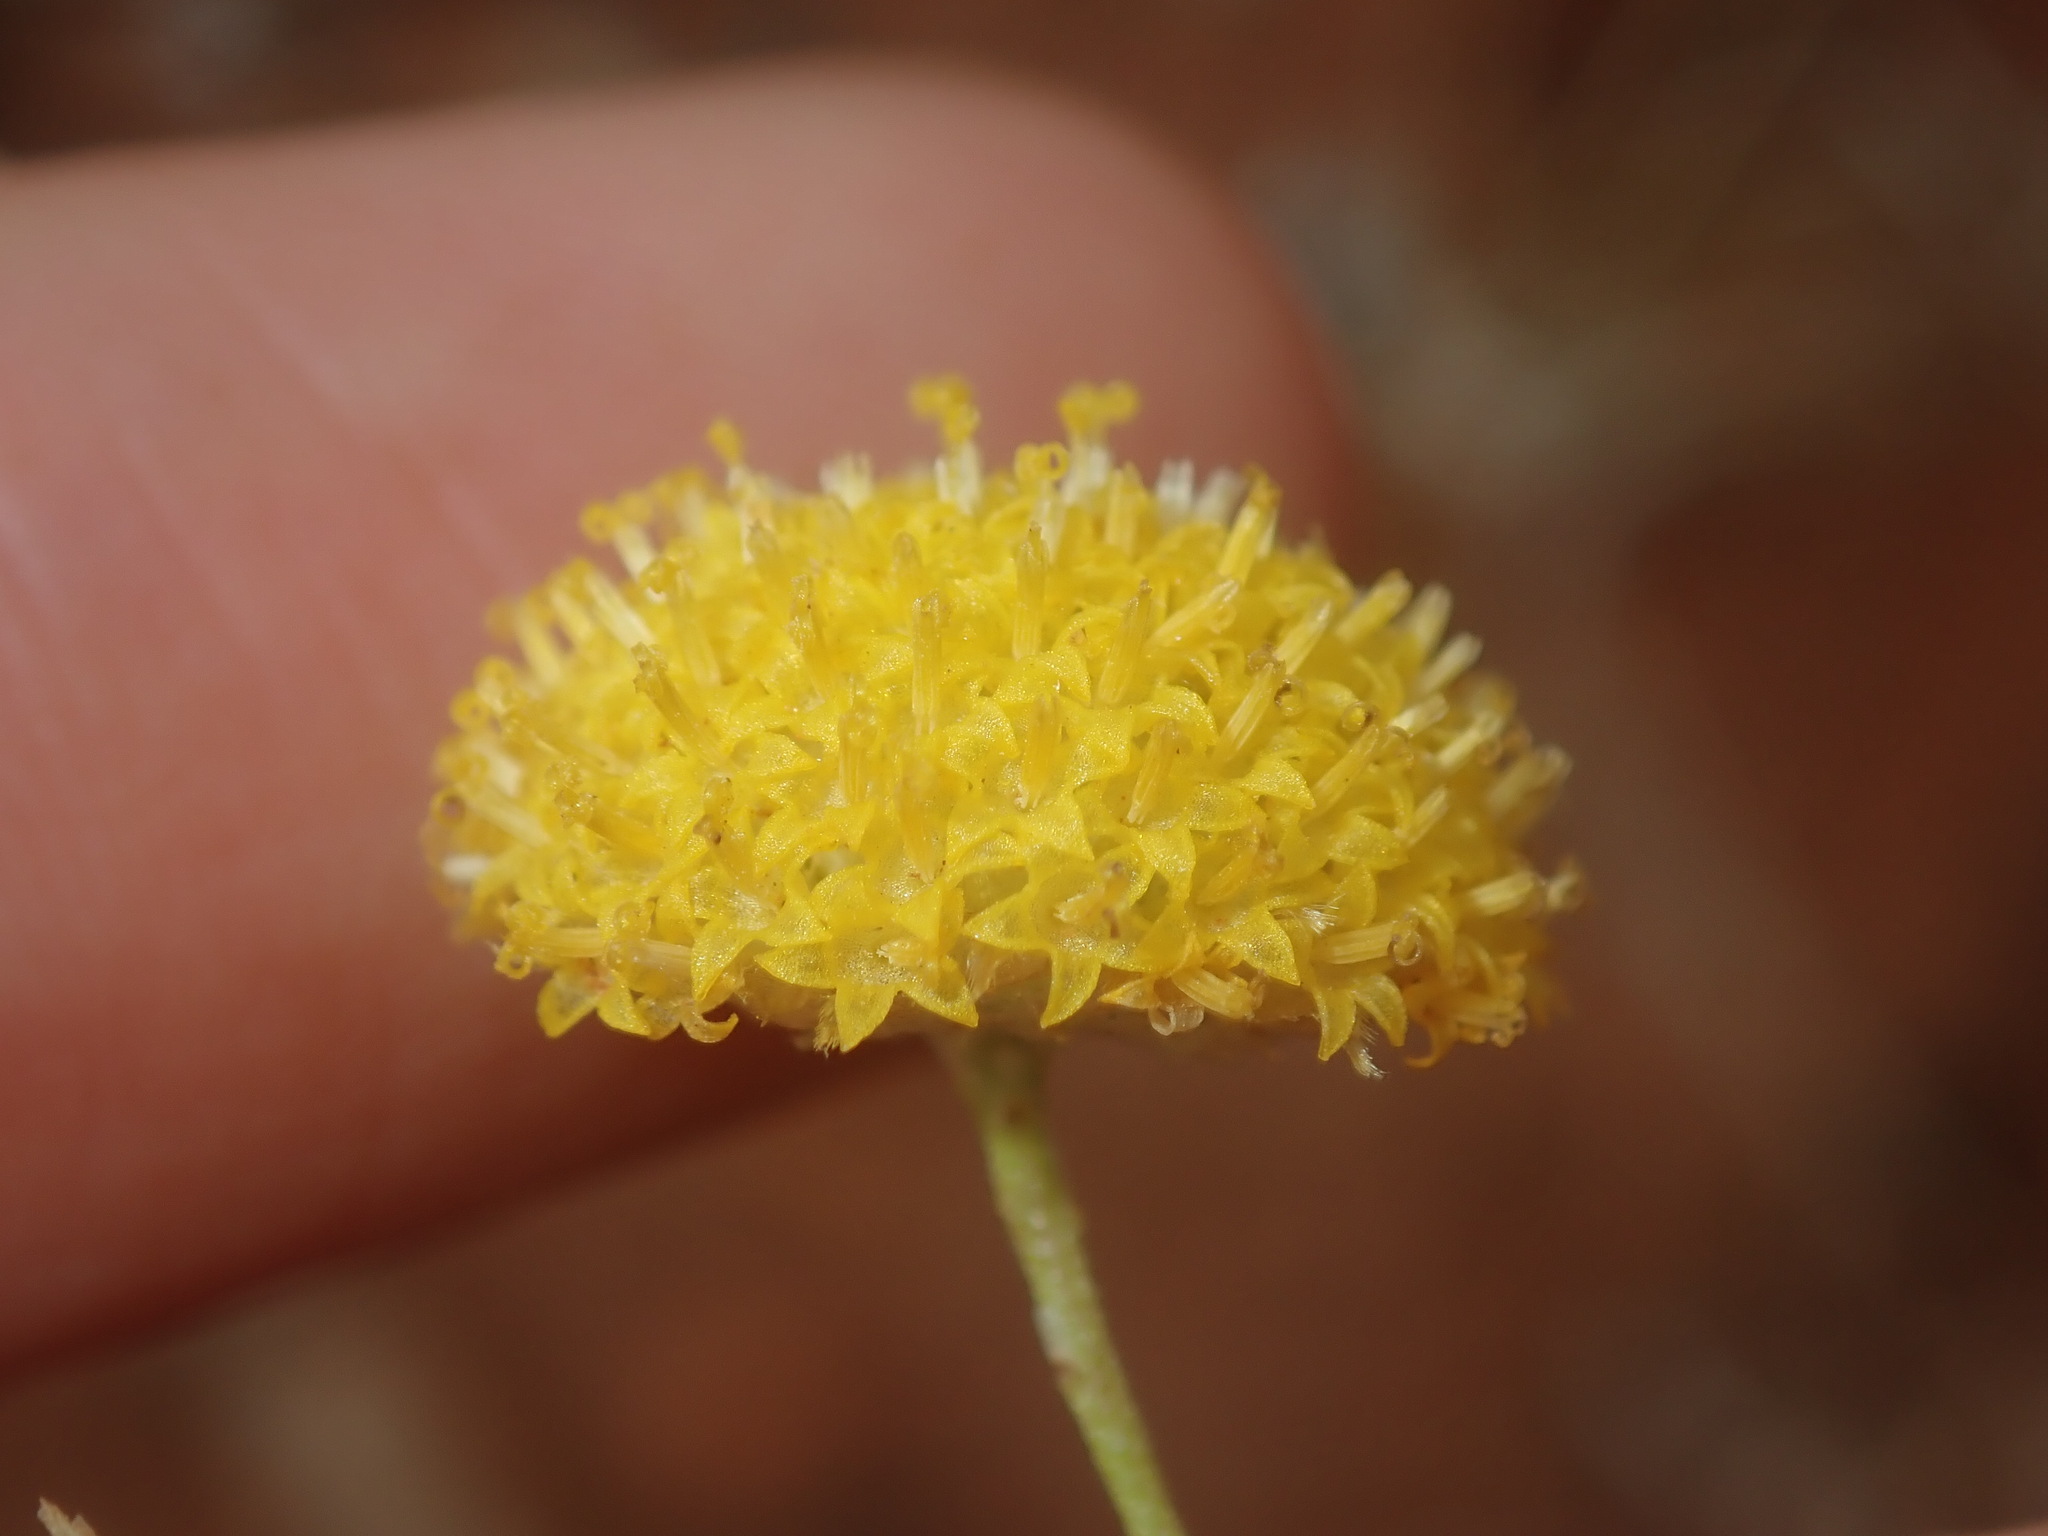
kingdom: Plantae
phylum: Tracheophyta
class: Magnoliopsida
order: Asterales
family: Asteraceae
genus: Rutidosis
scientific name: Rutidosis helichrysoides
